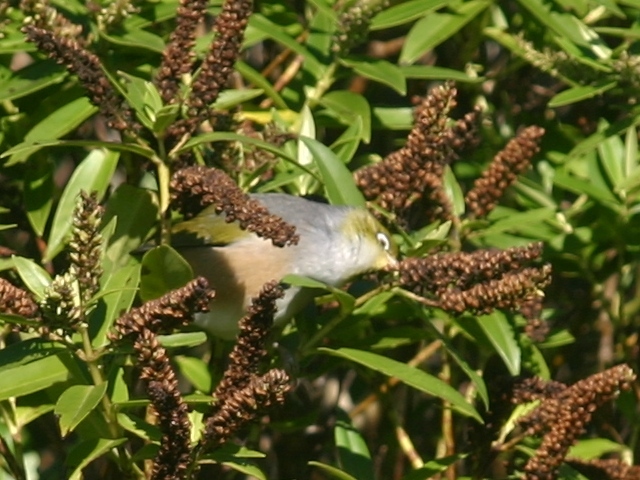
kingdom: Animalia
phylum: Chordata
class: Aves
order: Passeriformes
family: Zosteropidae
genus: Zosterops
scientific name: Zosterops lateralis
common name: Silvereye
